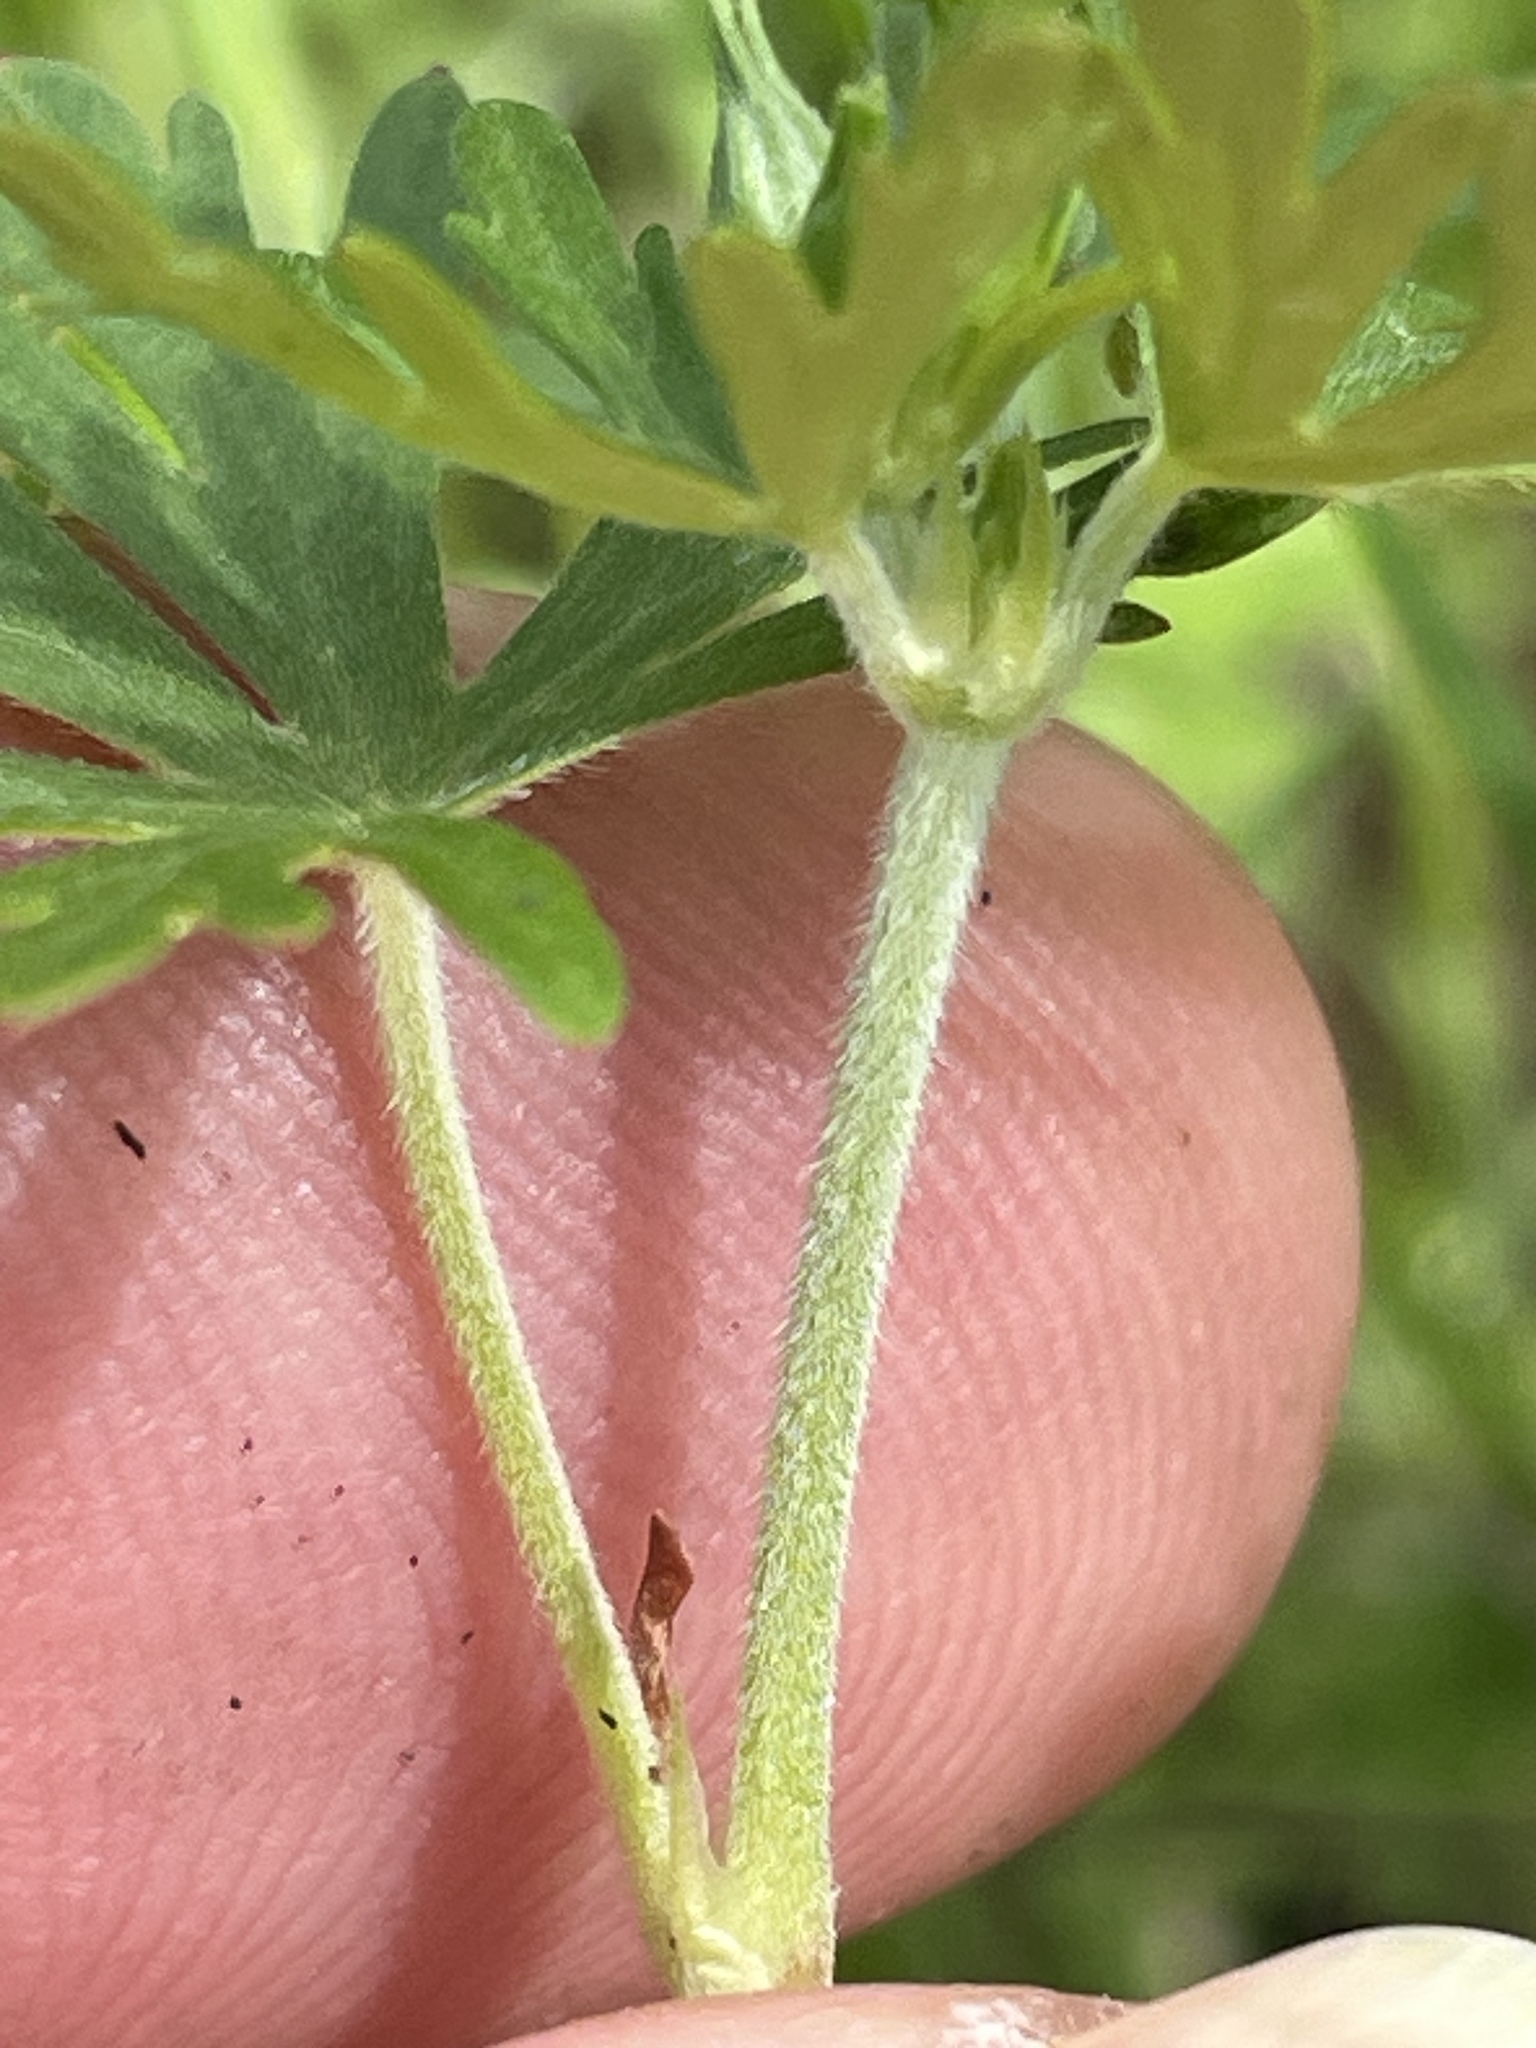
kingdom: Plantae
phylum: Tracheophyta
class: Magnoliopsida
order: Geraniales
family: Geraniaceae
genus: Geranium
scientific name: Geranium carolinianum
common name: Carolina crane's-bill
